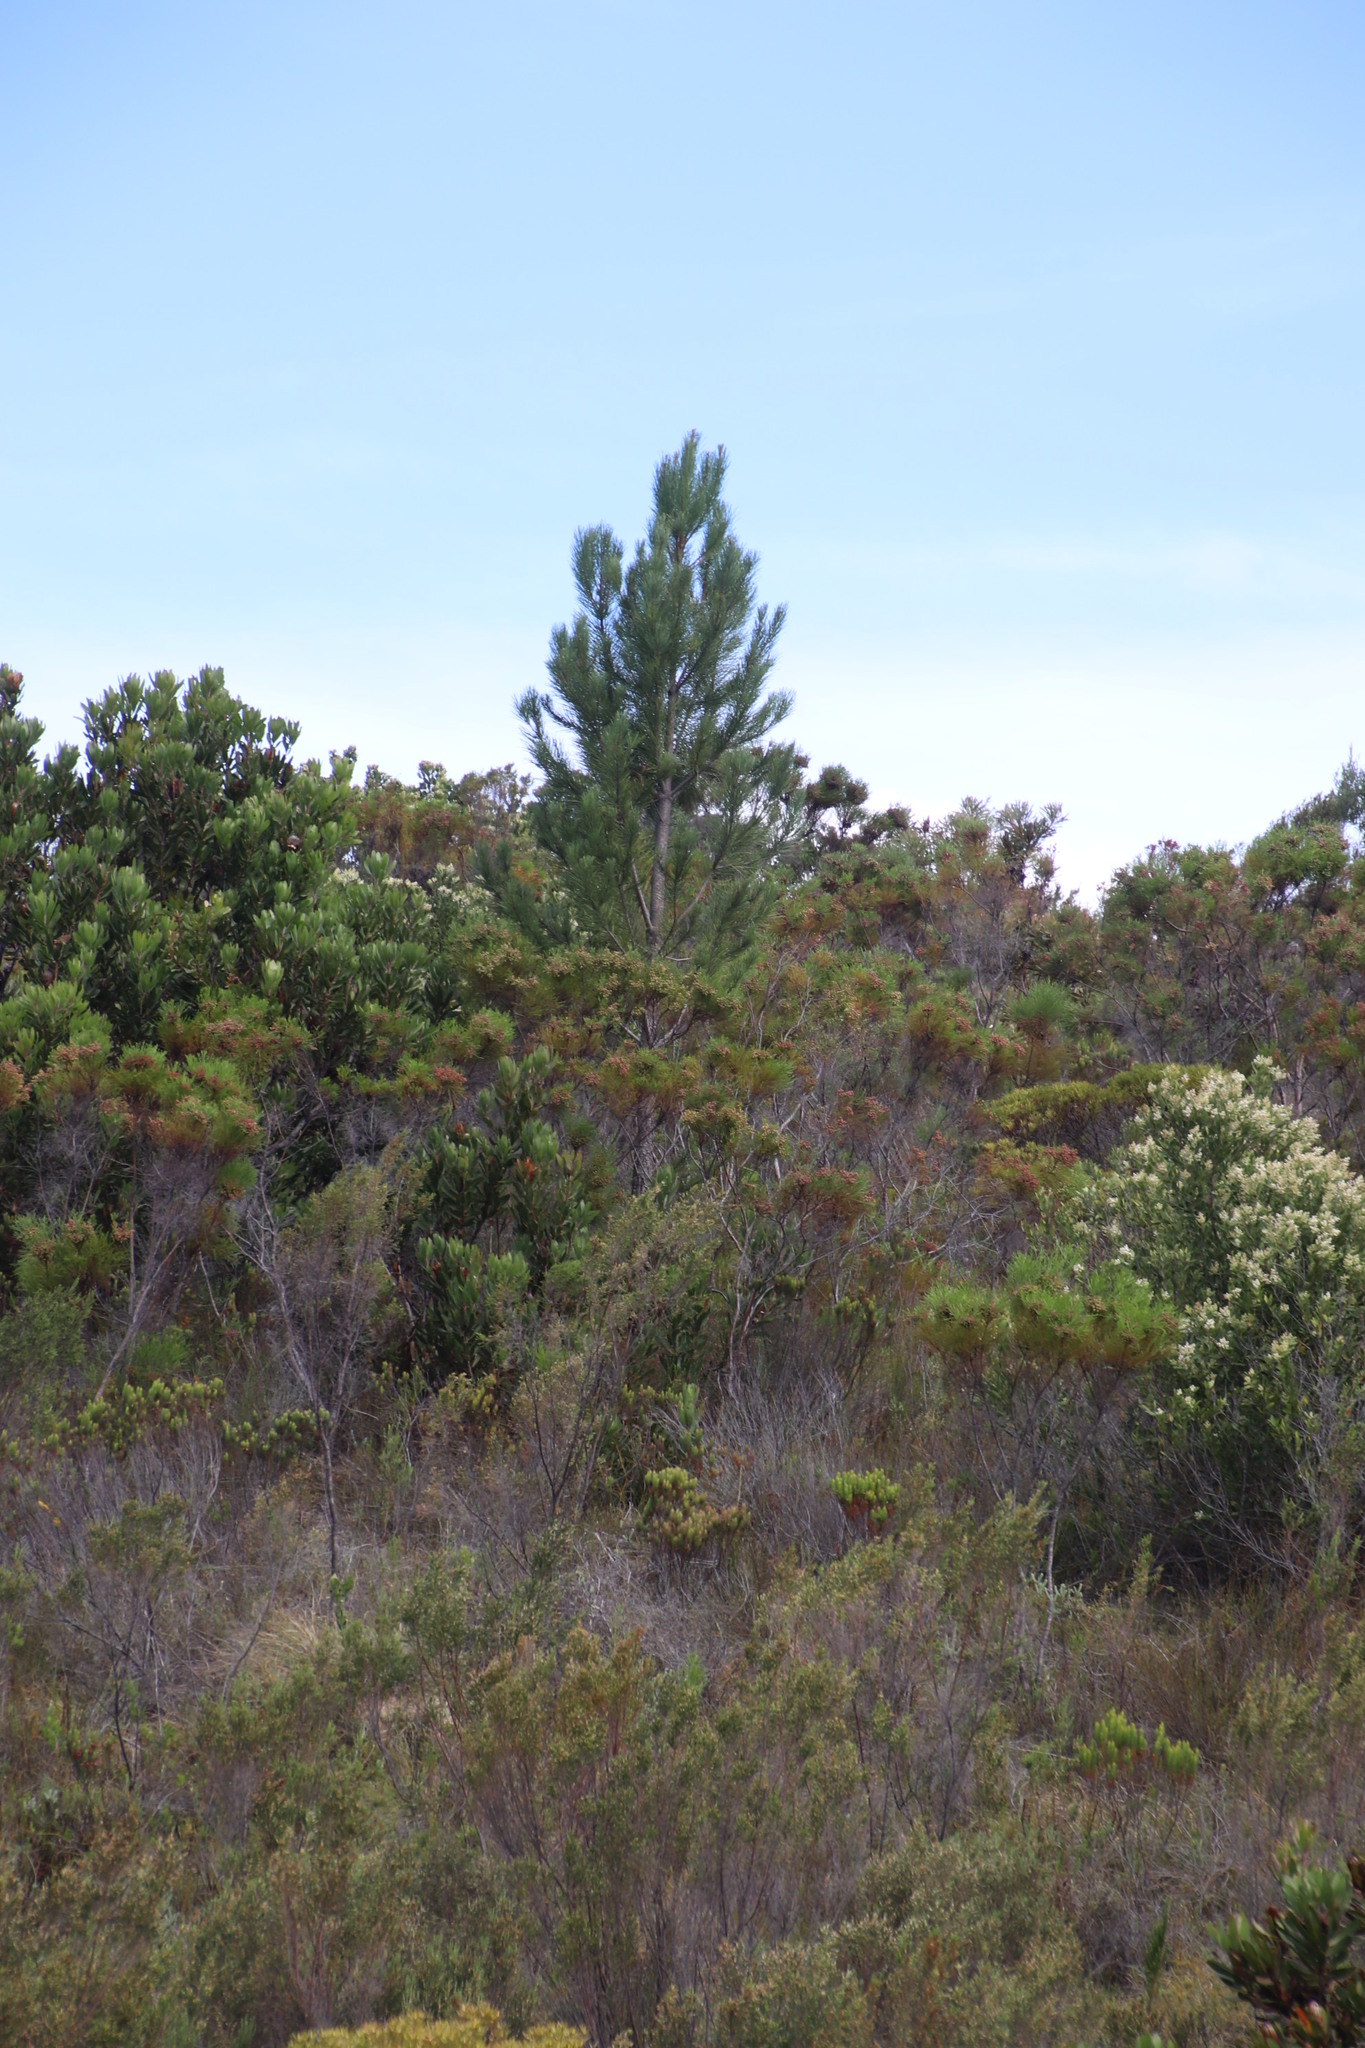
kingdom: Plantae
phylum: Tracheophyta
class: Pinopsida
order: Pinales
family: Pinaceae
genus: Pinus
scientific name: Pinus pinaster
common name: Maritime pine
